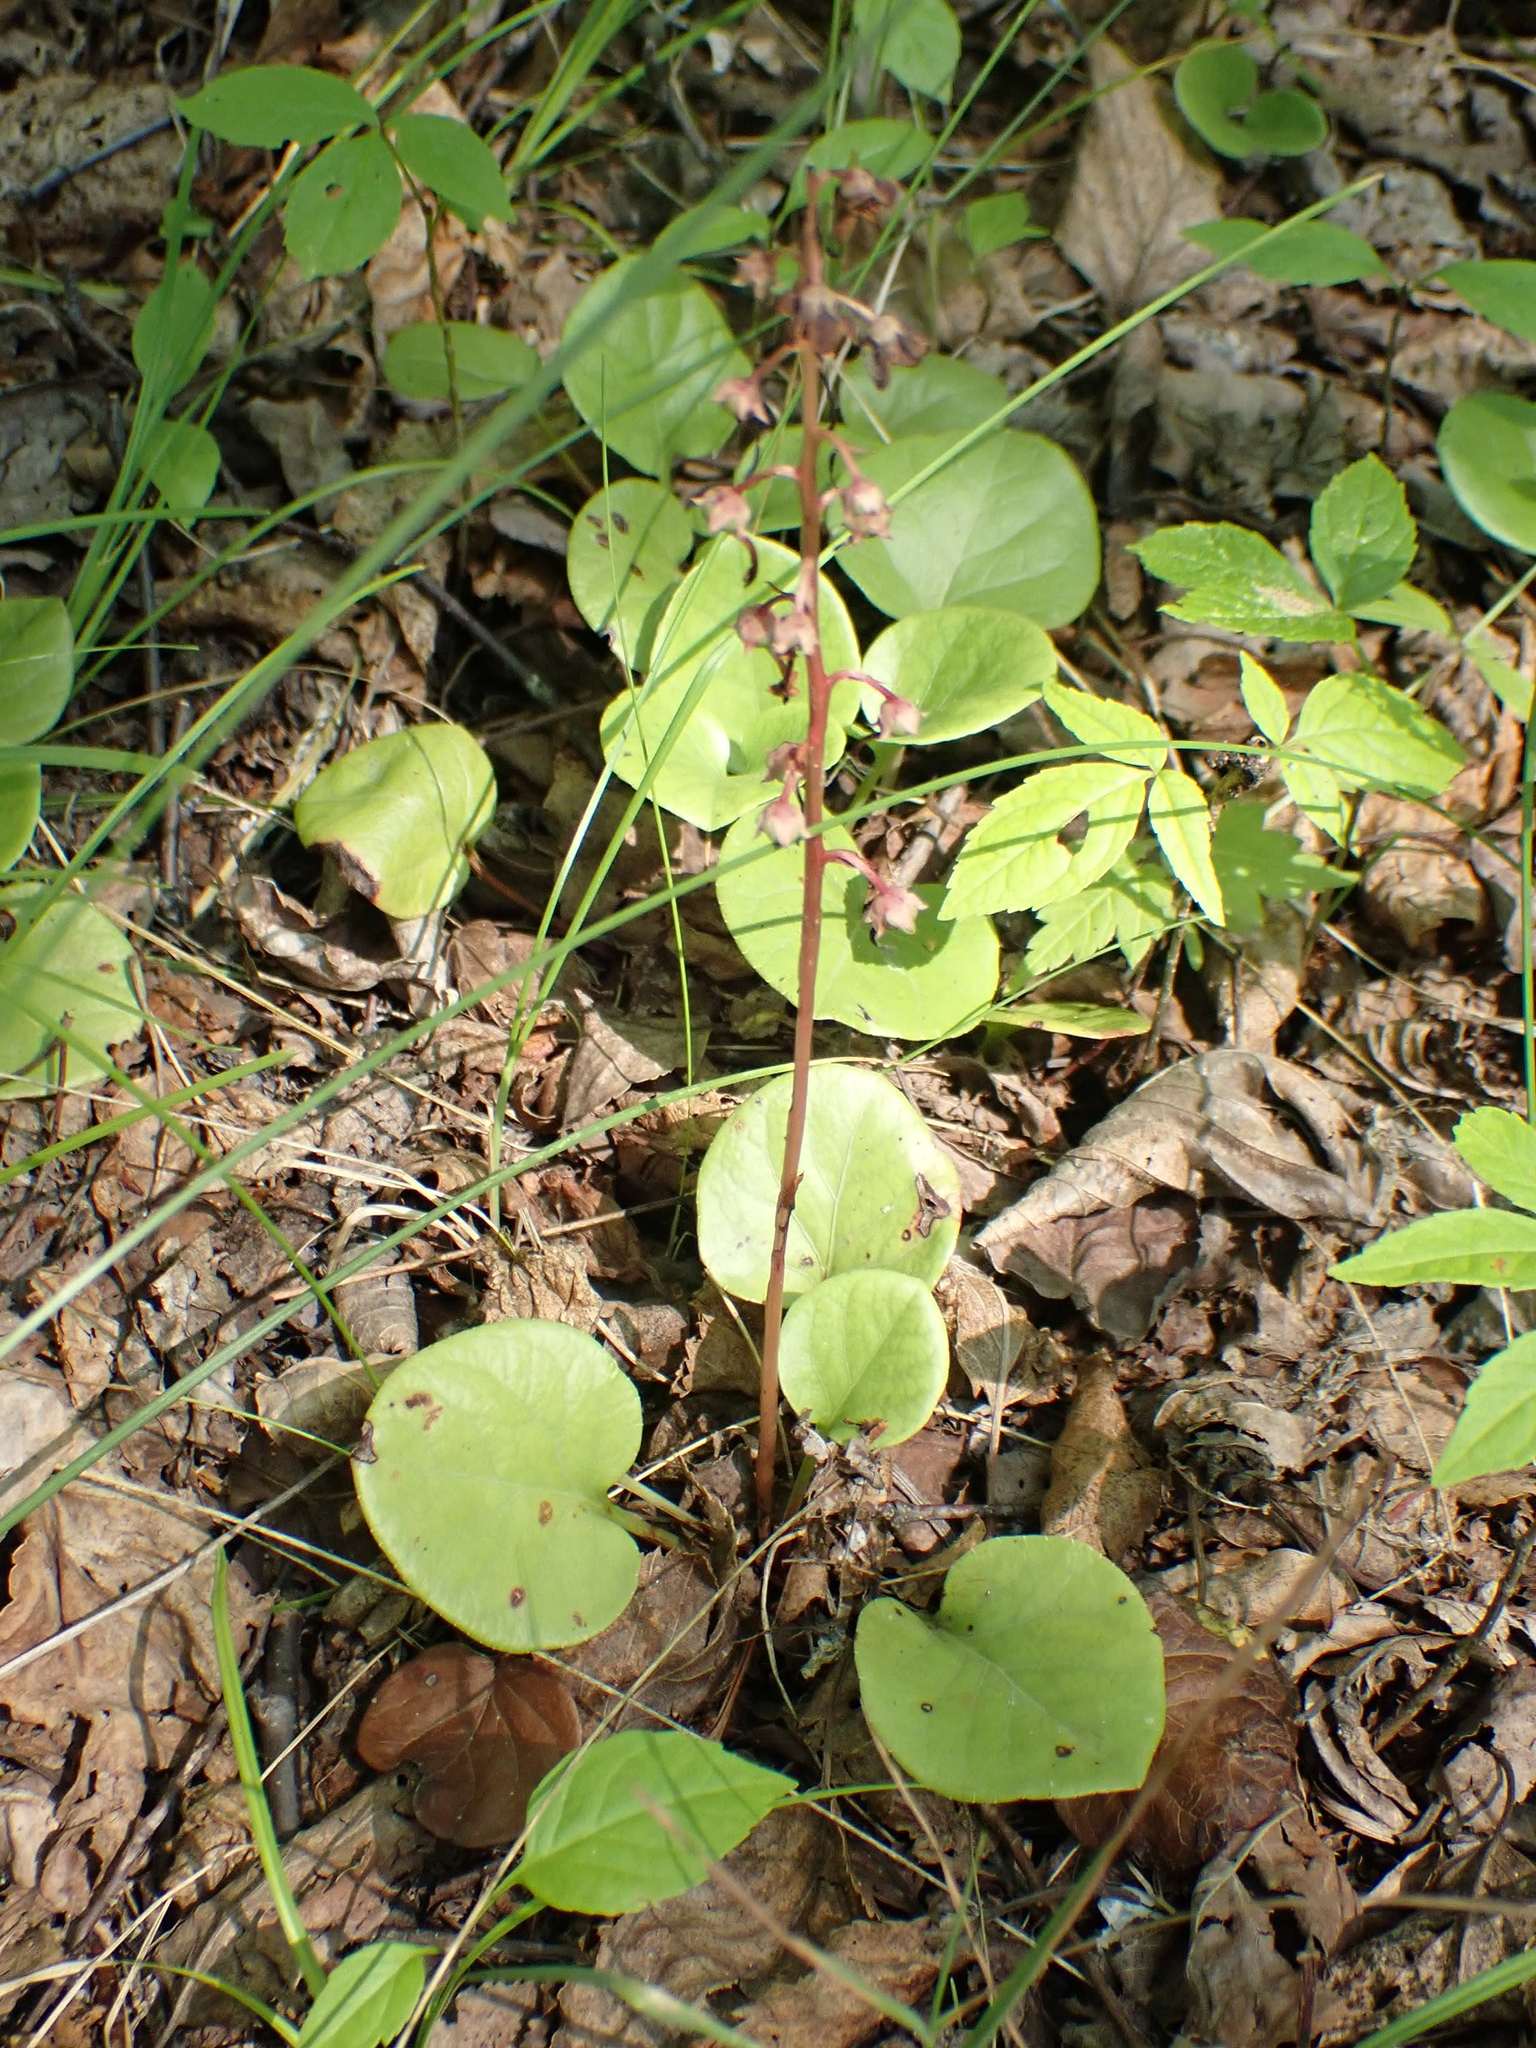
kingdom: Plantae
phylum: Tracheophyta
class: Magnoliopsida
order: Ericales
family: Ericaceae
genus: Pyrola
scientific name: Pyrola asarifolia
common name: Bog wintergreen
